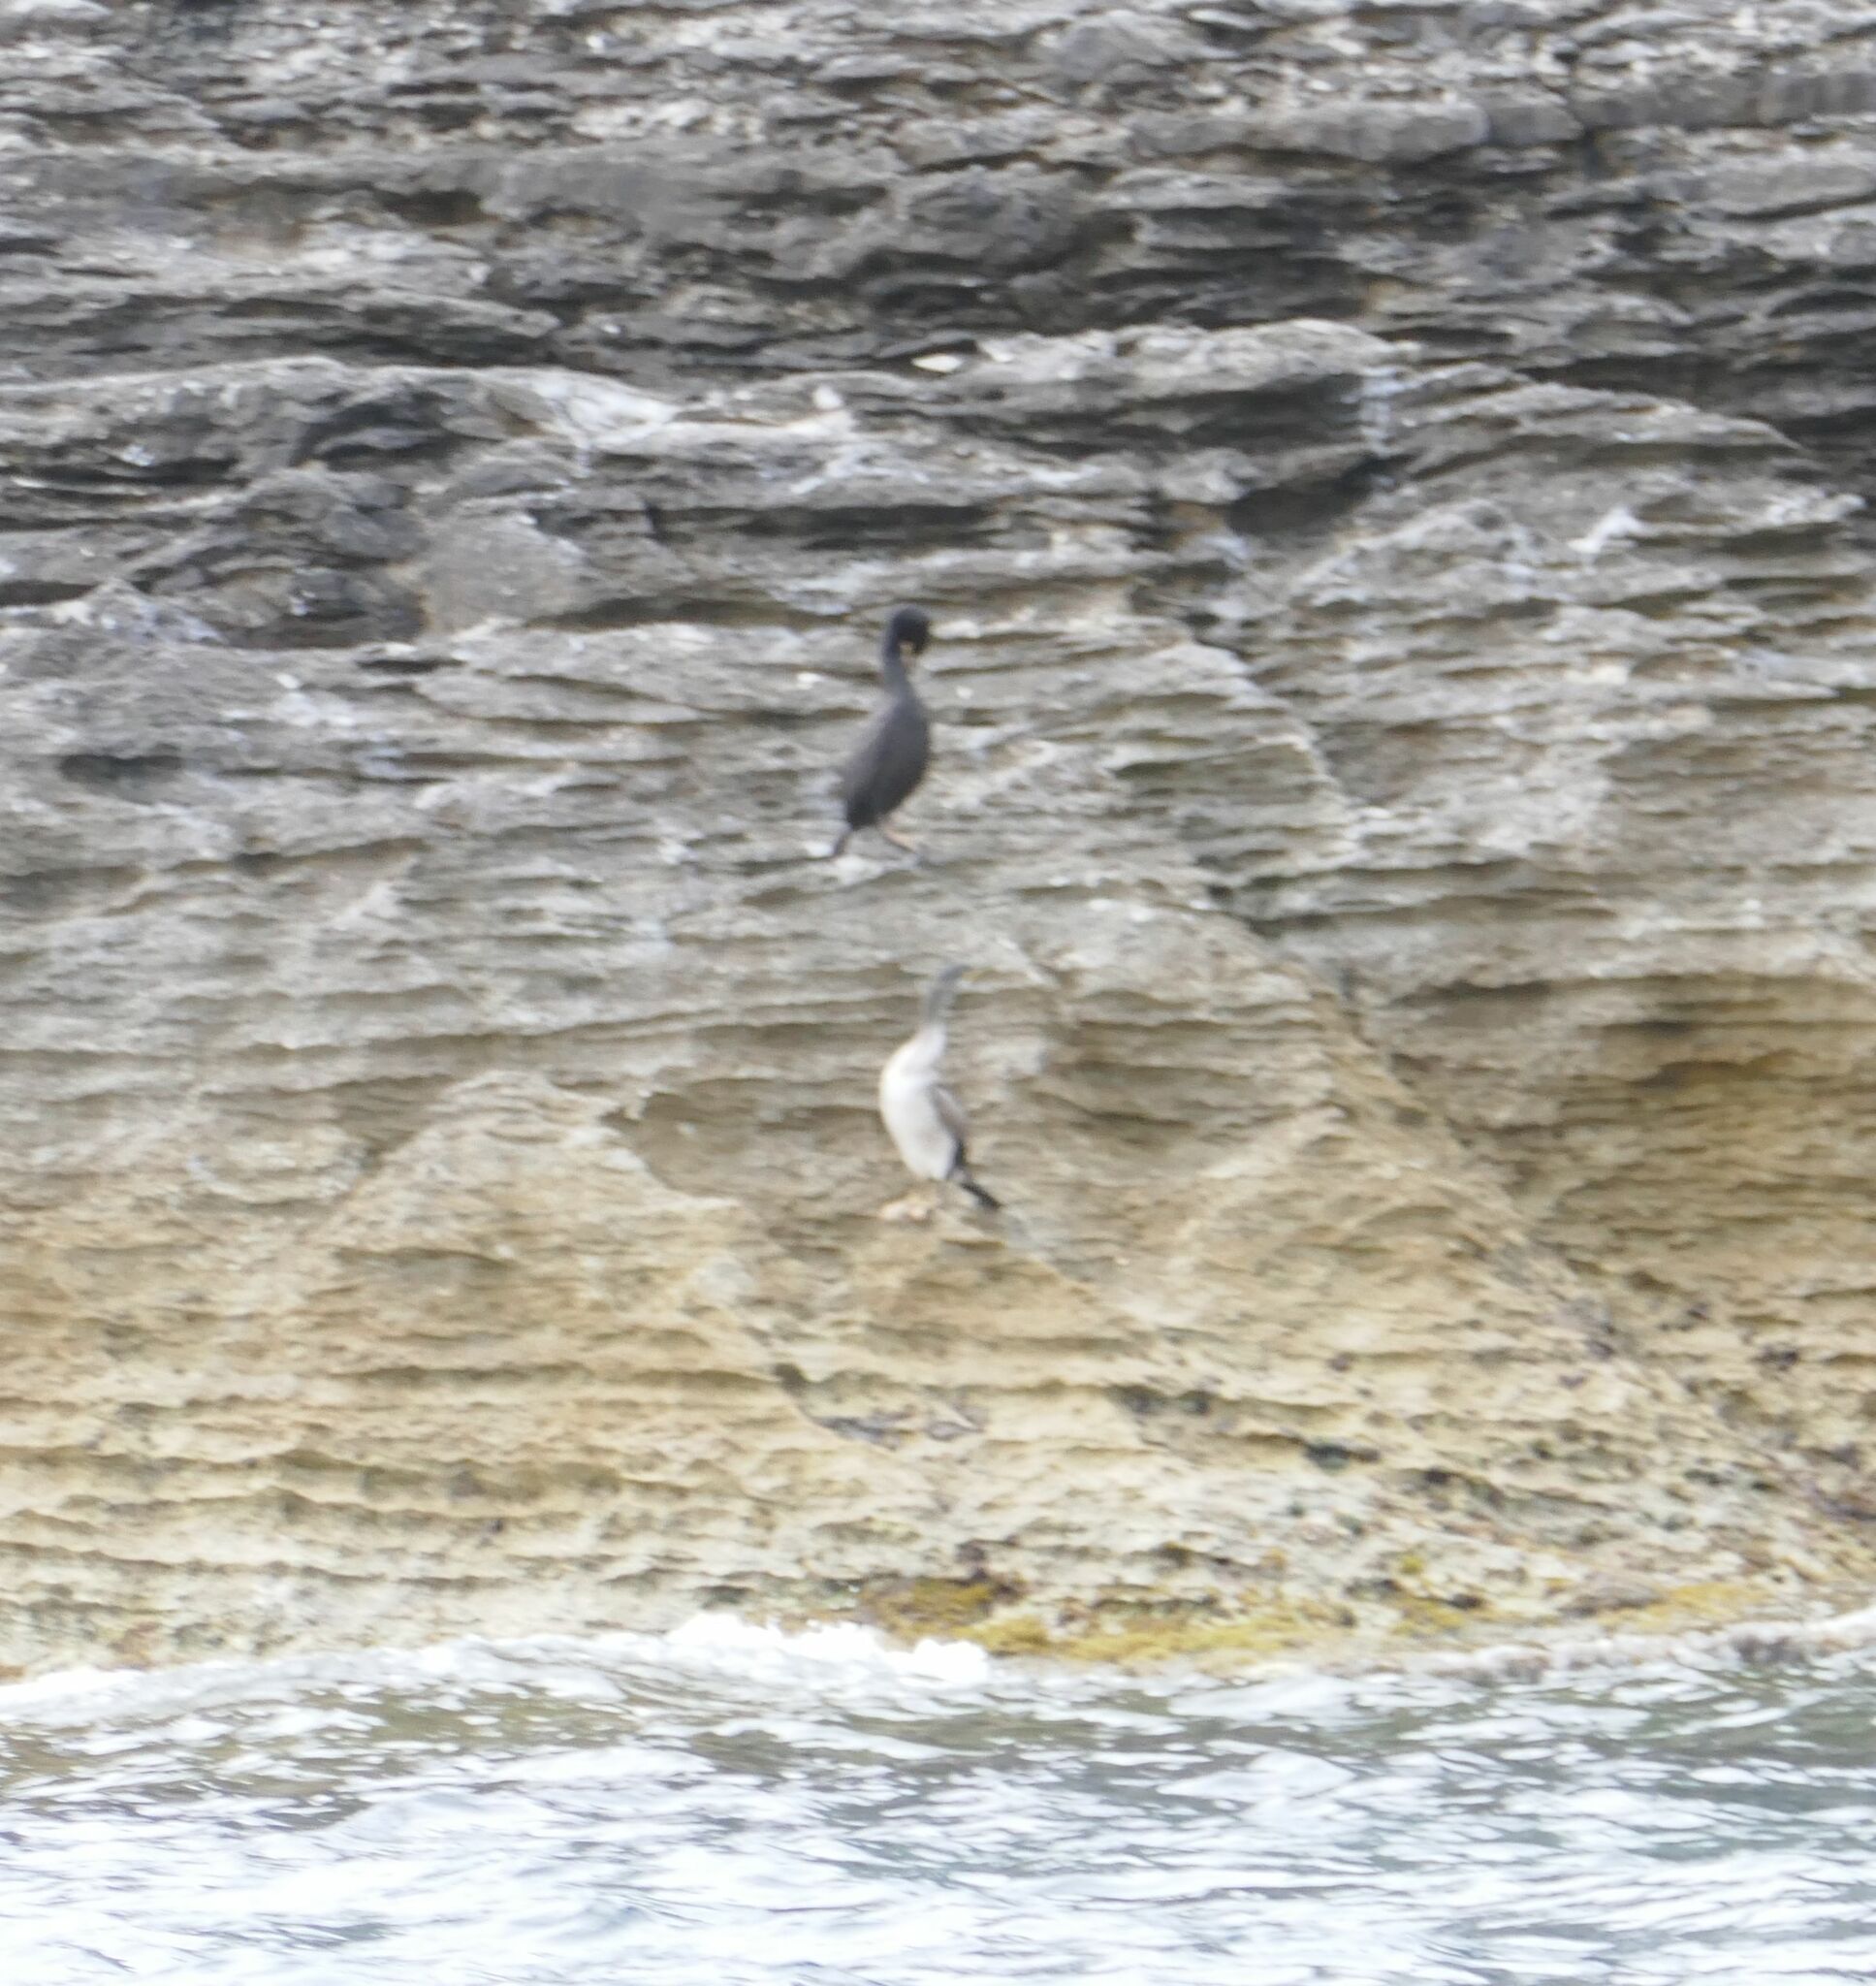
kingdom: Animalia
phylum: Chordata
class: Aves
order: Suliformes
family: Phalacrocoracidae
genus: Phalacrocorax
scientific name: Phalacrocorax aristotelis
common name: European shag
